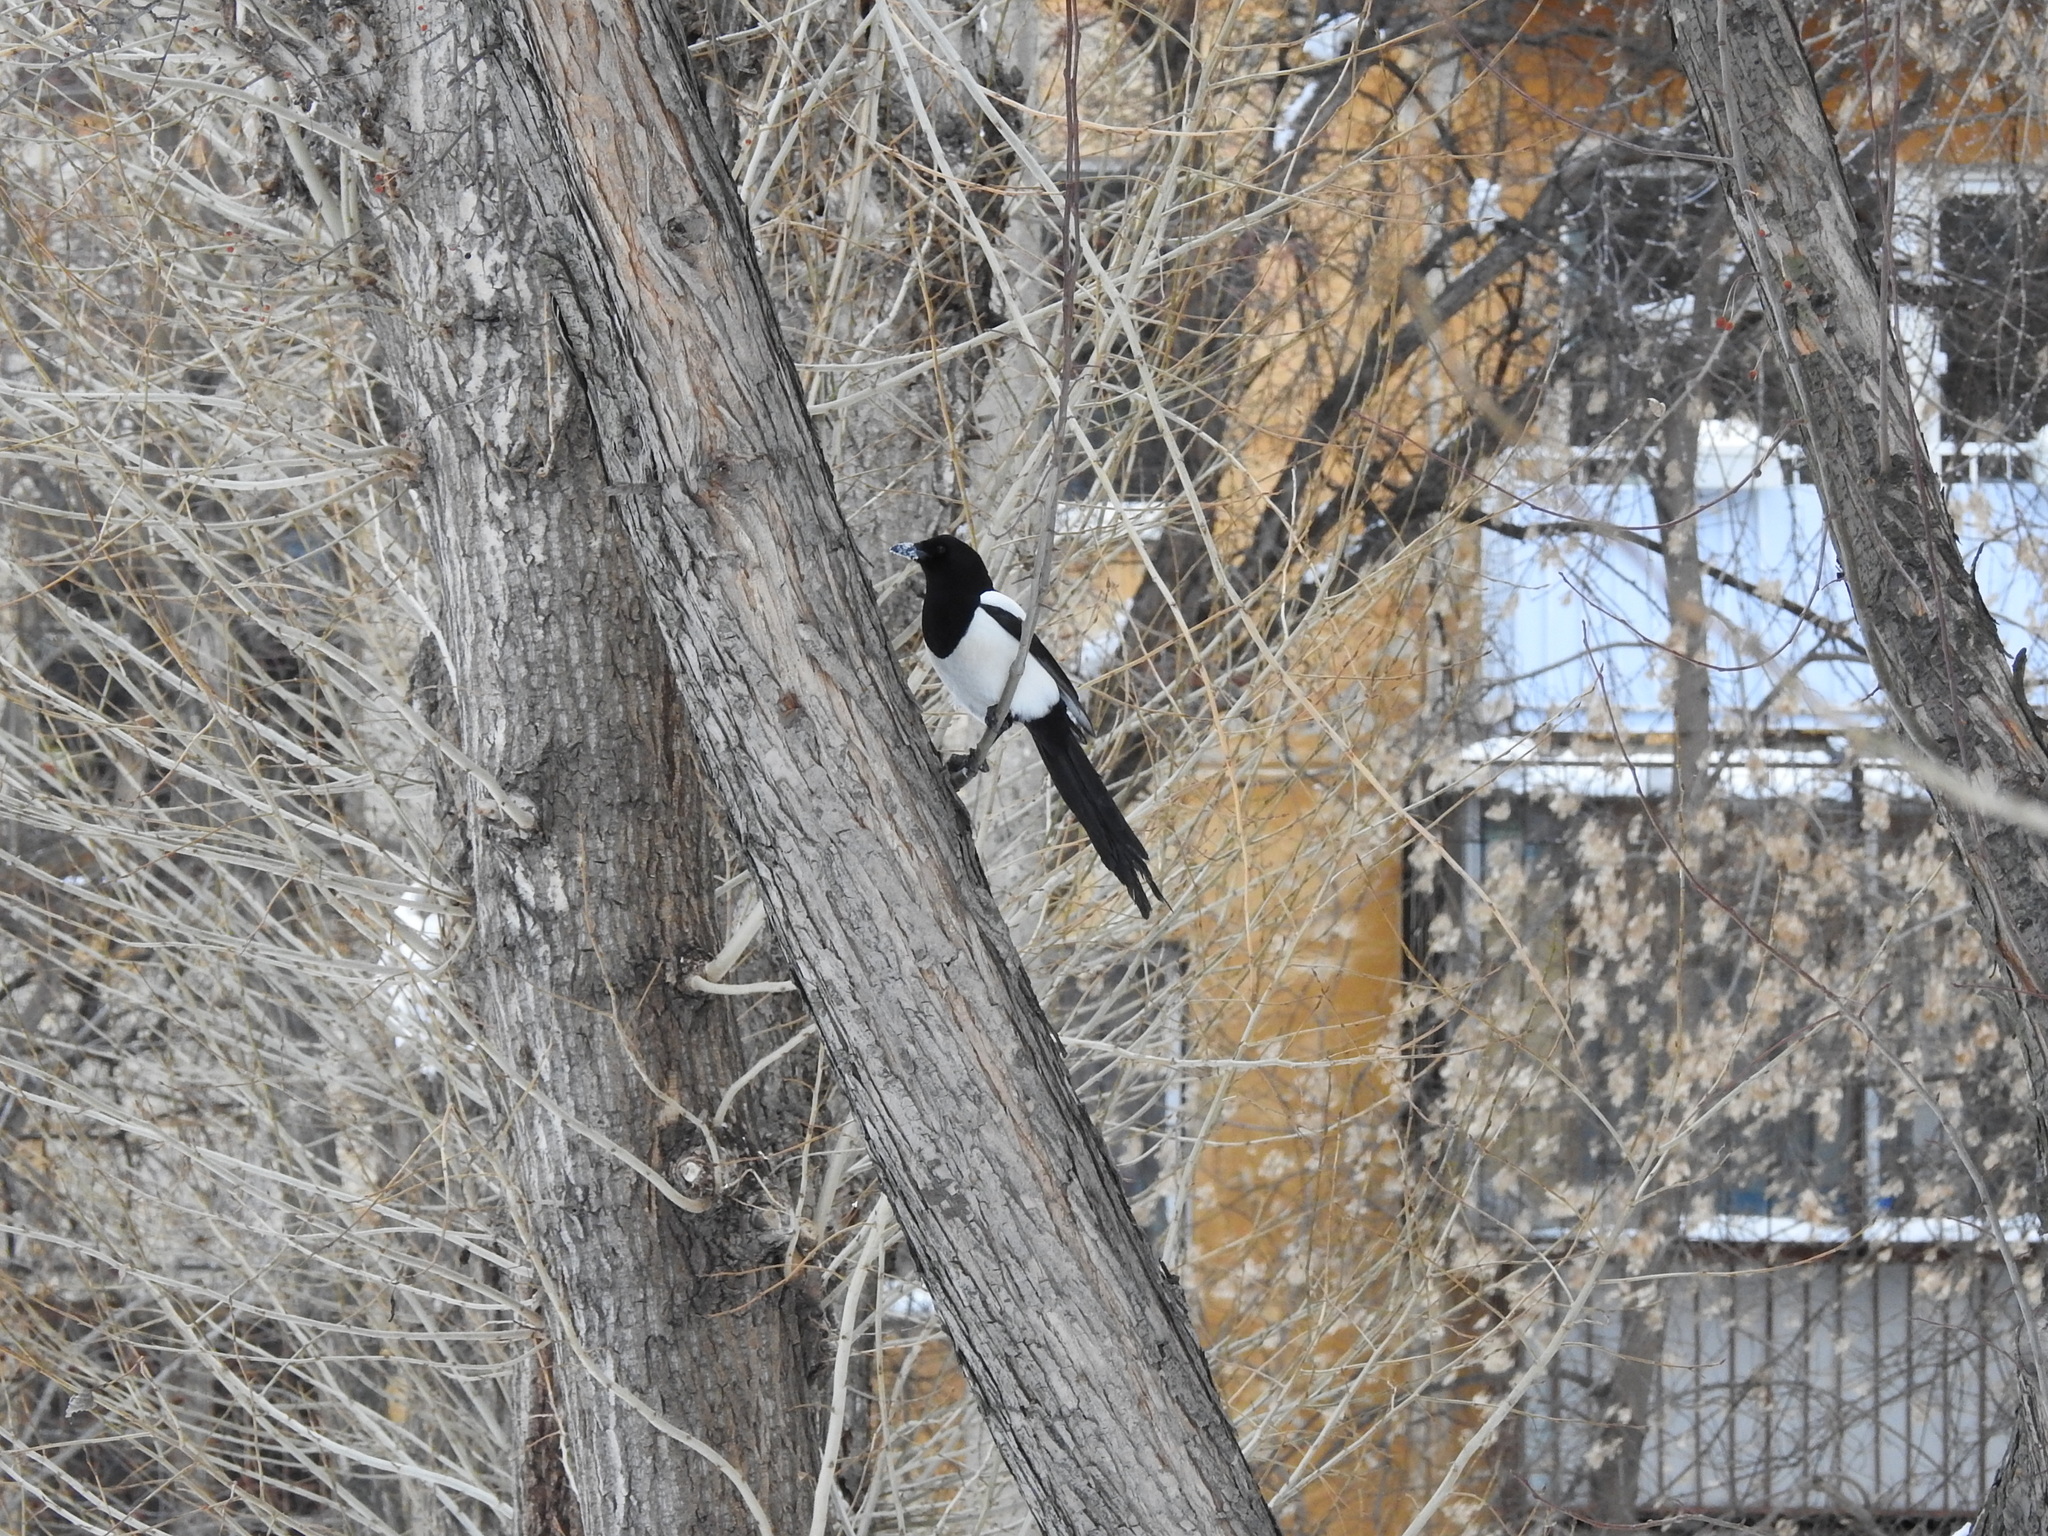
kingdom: Animalia
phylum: Chordata
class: Aves
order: Passeriformes
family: Corvidae
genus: Pica
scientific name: Pica pica
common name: Eurasian magpie
